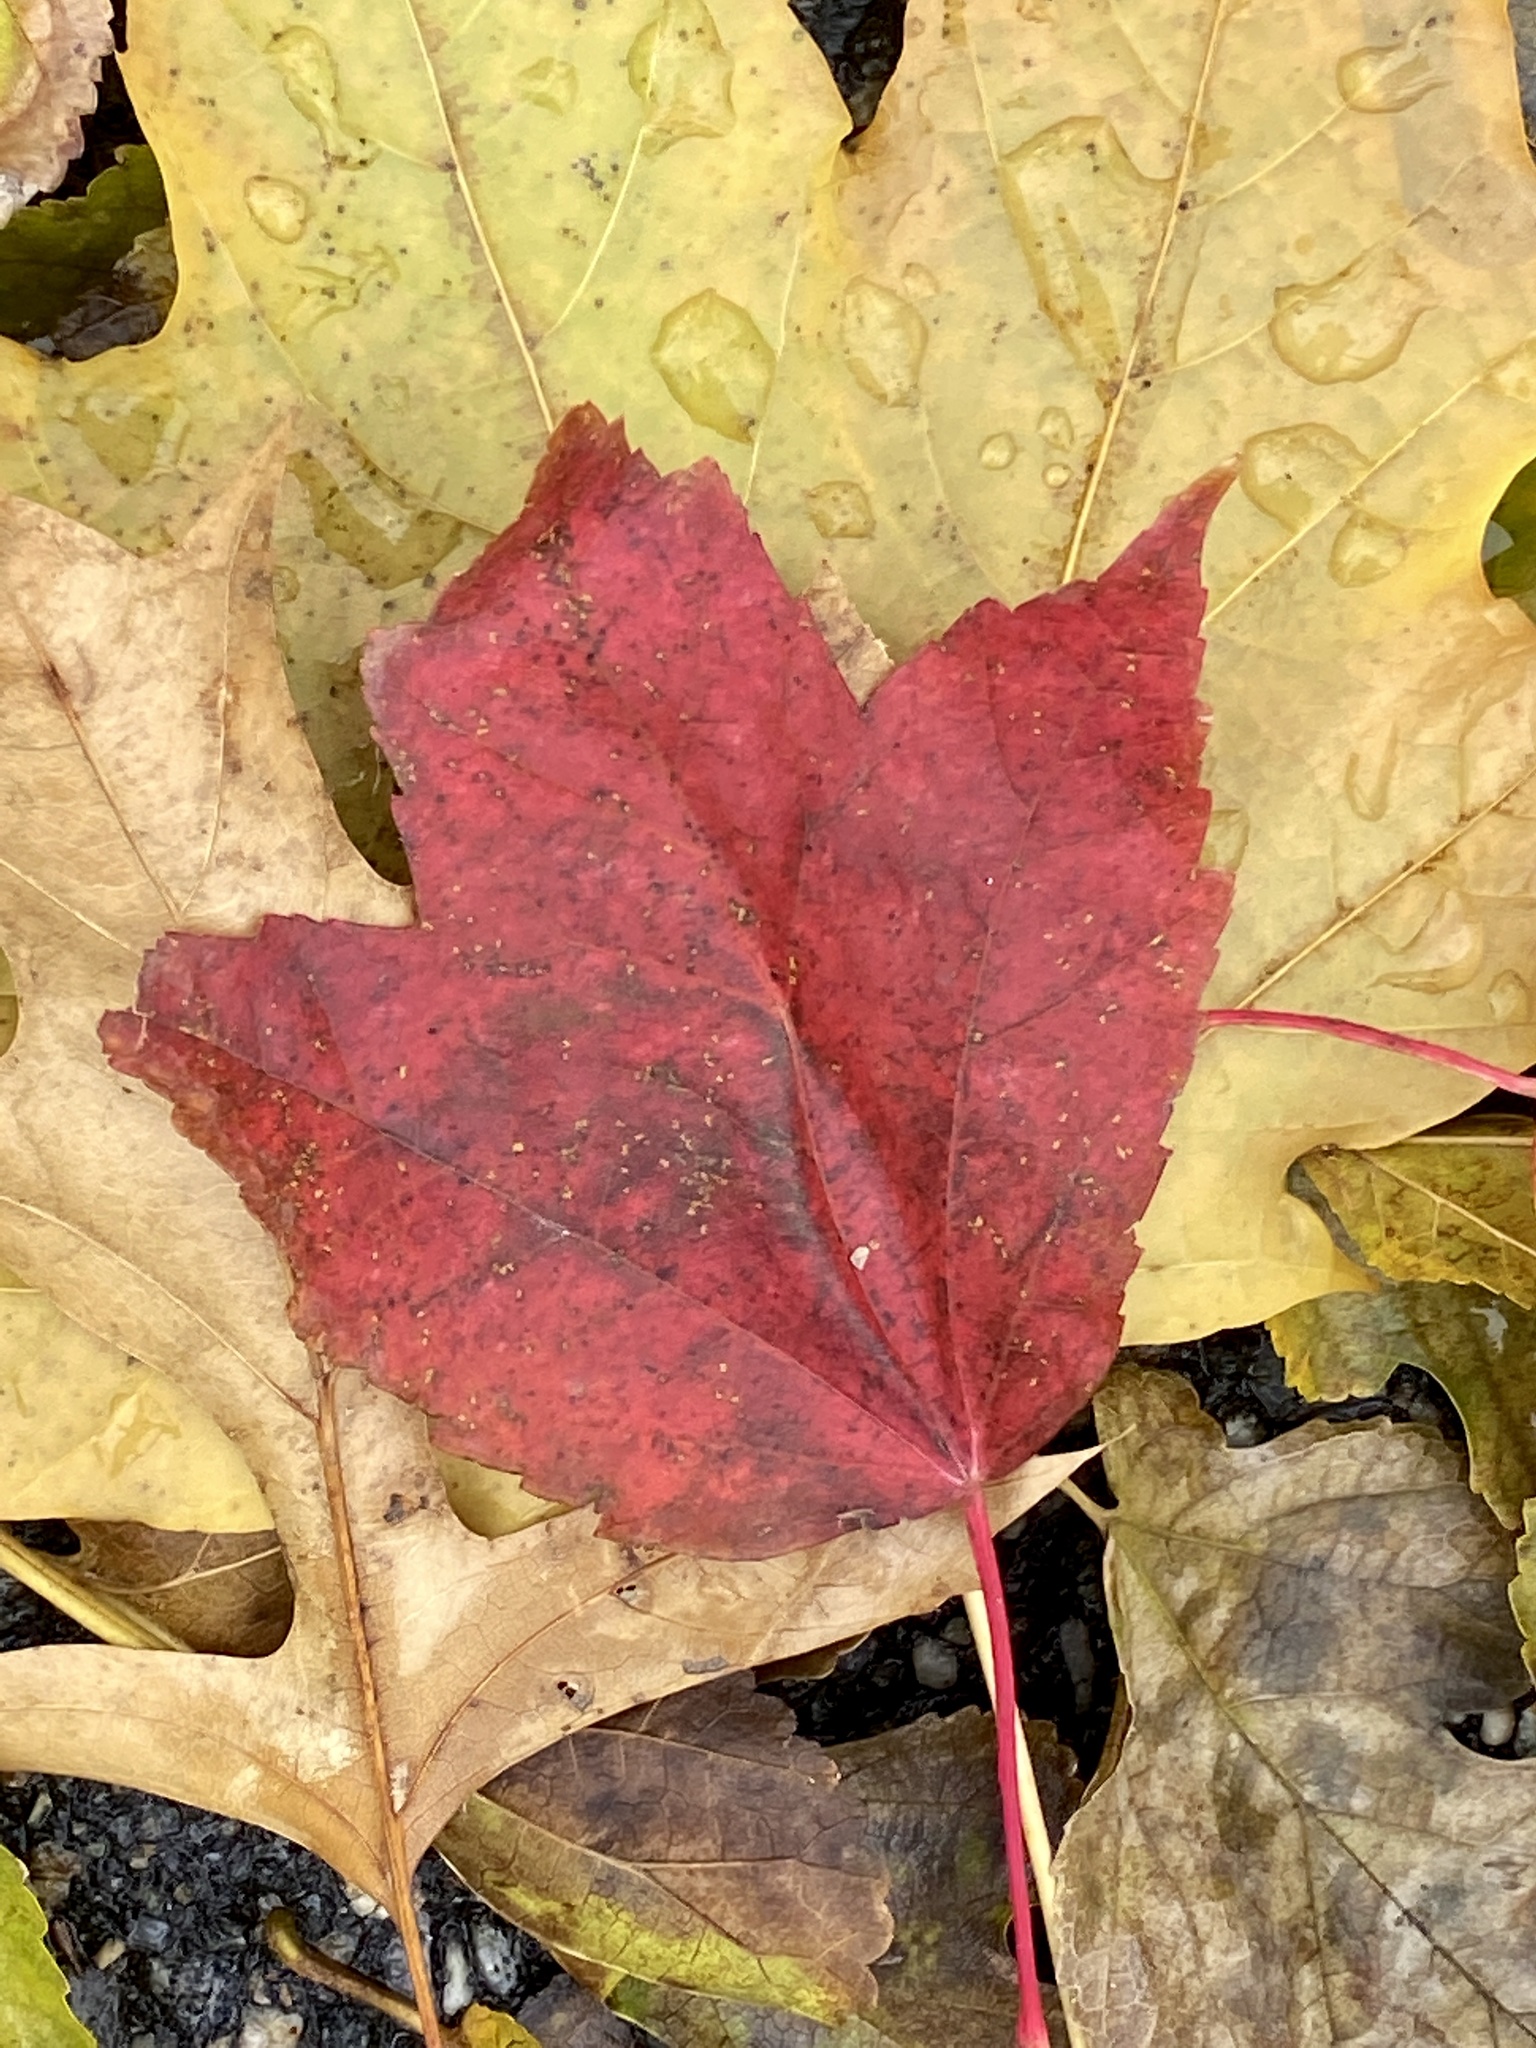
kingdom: Plantae
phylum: Tracheophyta
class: Magnoliopsida
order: Sapindales
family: Sapindaceae
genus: Acer
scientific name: Acer rubrum
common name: Red maple
